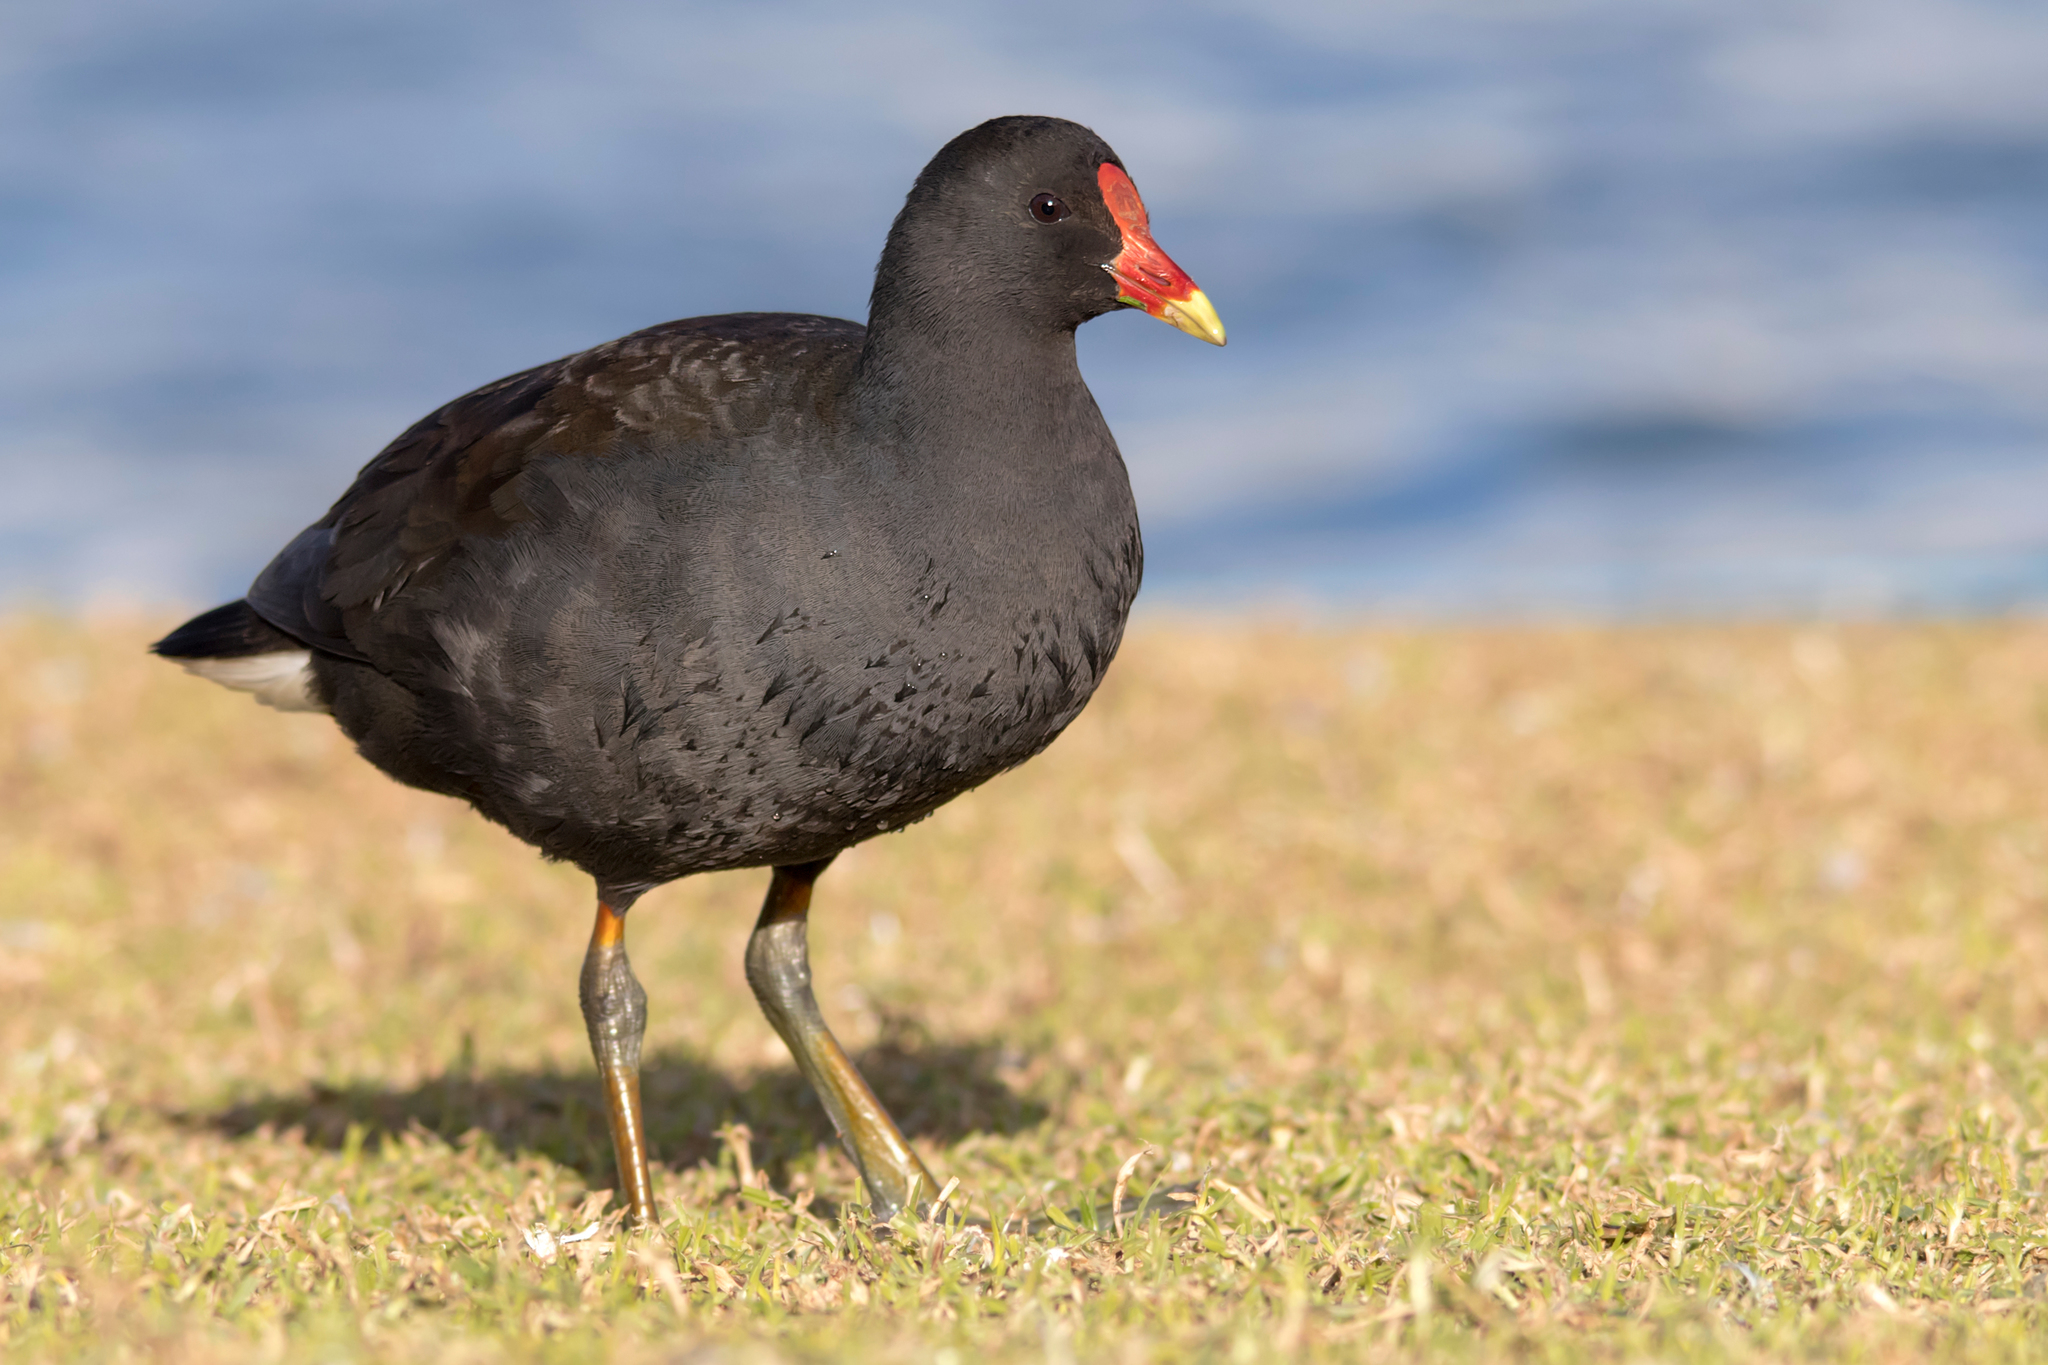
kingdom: Animalia
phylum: Chordata
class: Aves
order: Gruiformes
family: Rallidae
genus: Gallinula
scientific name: Gallinula tenebrosa
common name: Dusky moorhen
